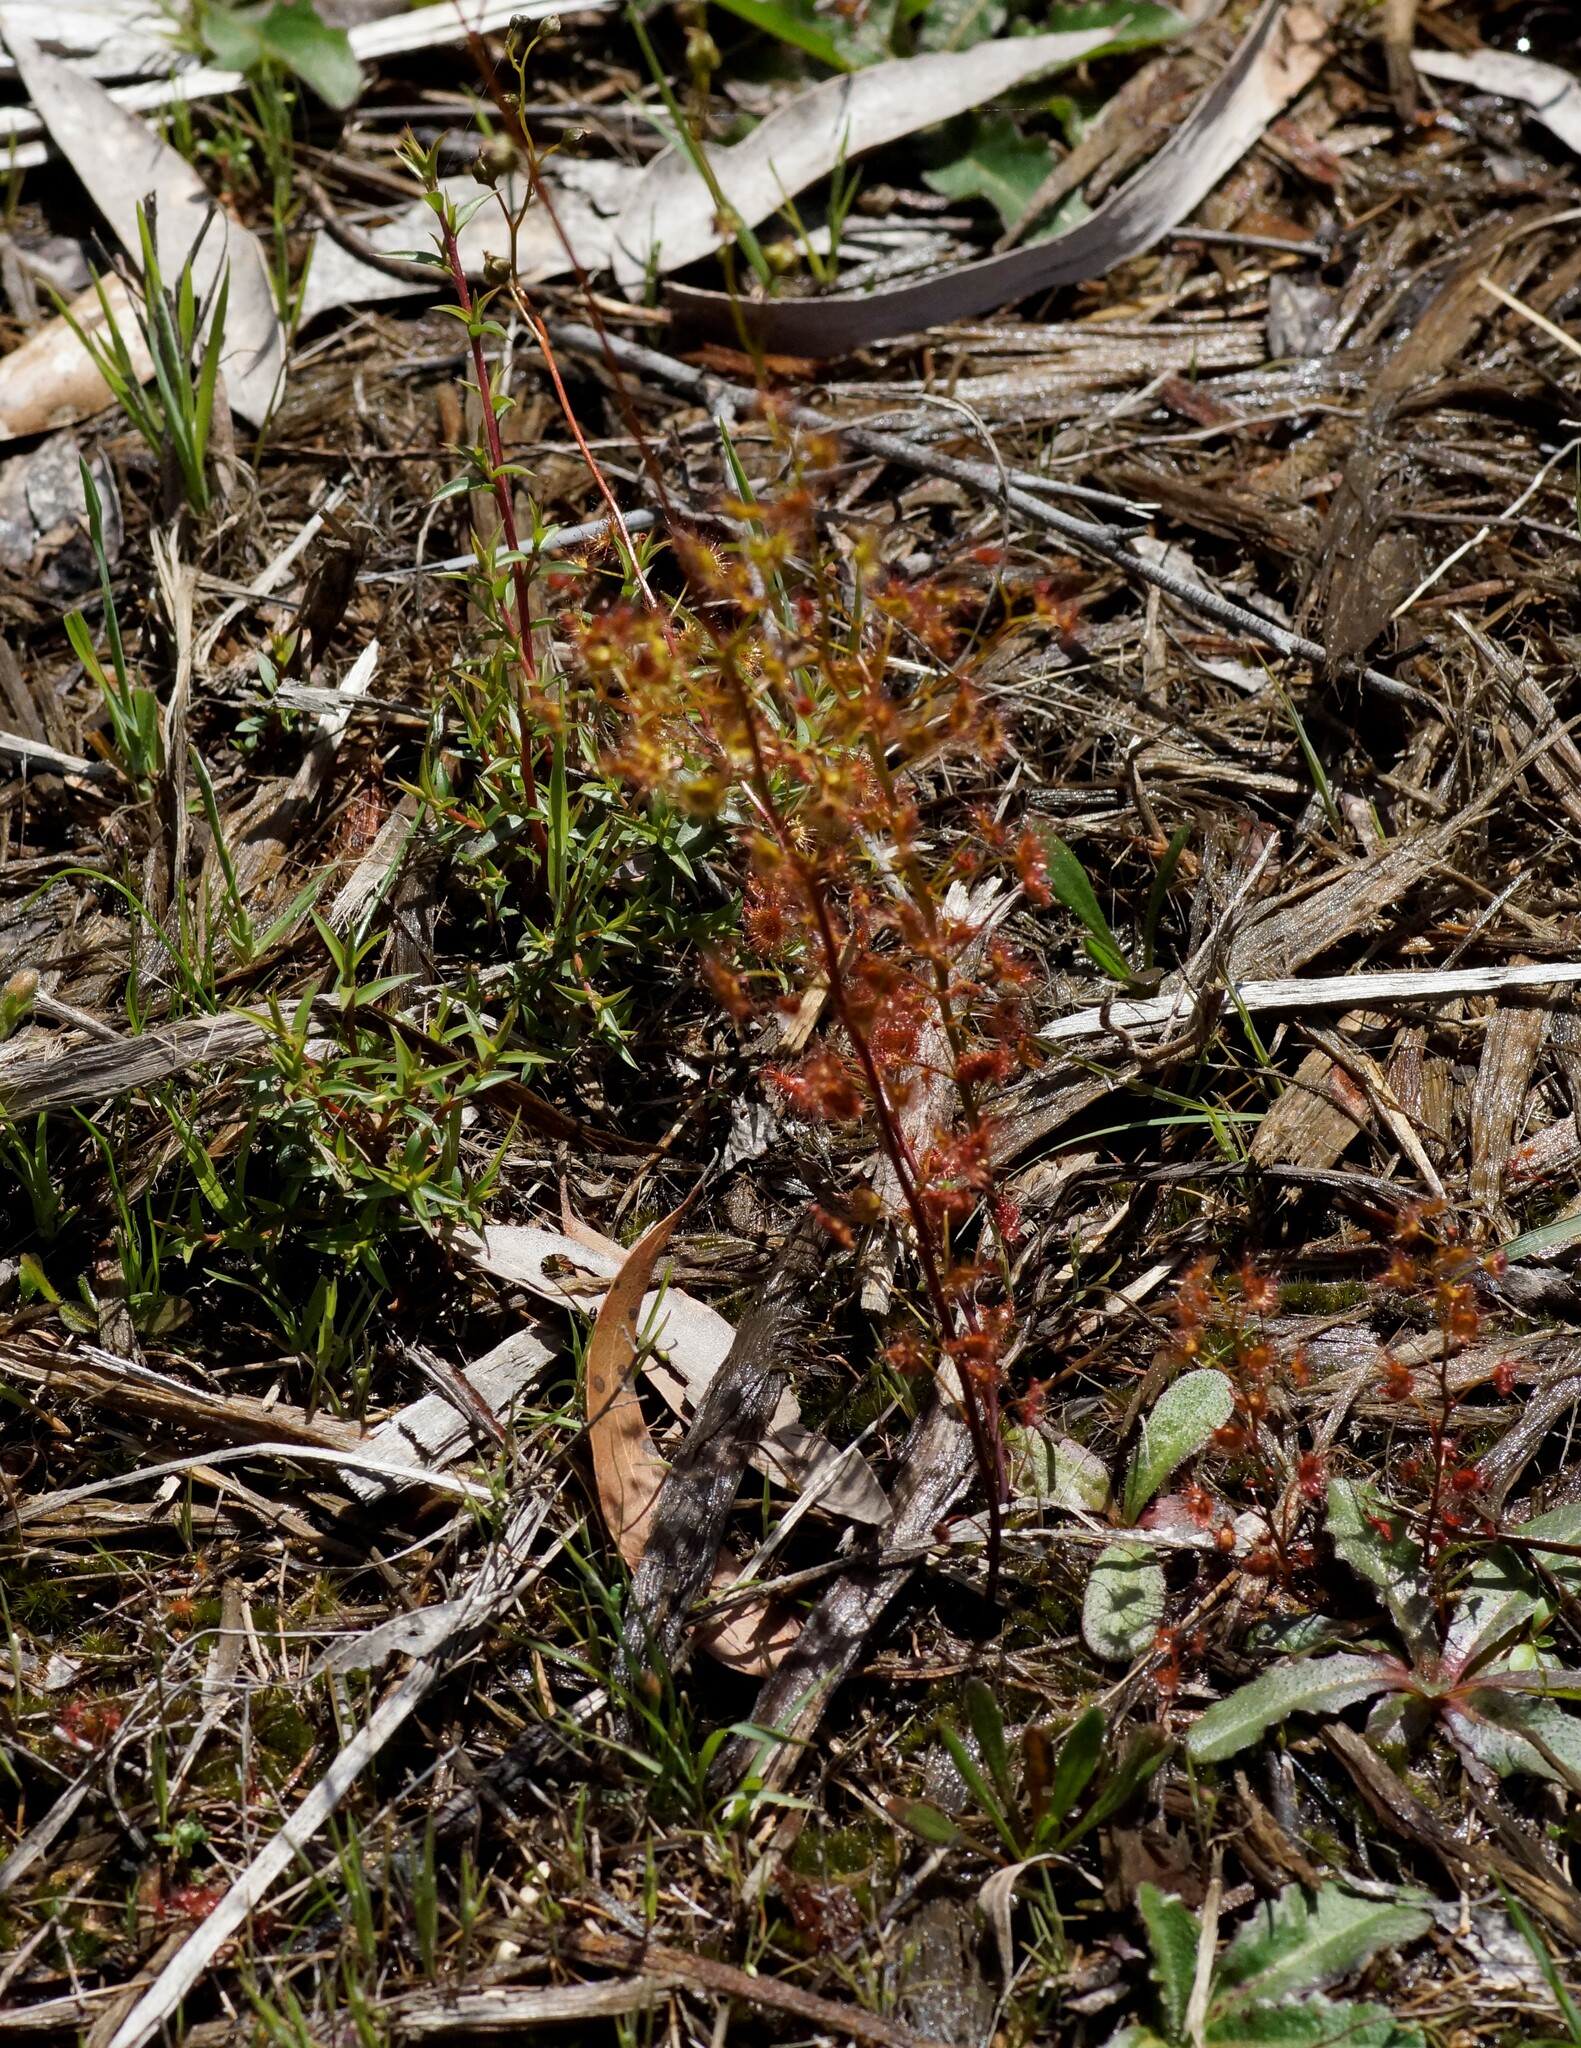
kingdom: Plantae
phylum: Tracheophyta
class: Magnoliopsida
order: Caryophyllales
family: Droseraceae
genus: Drosera
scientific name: Drosera peltata
